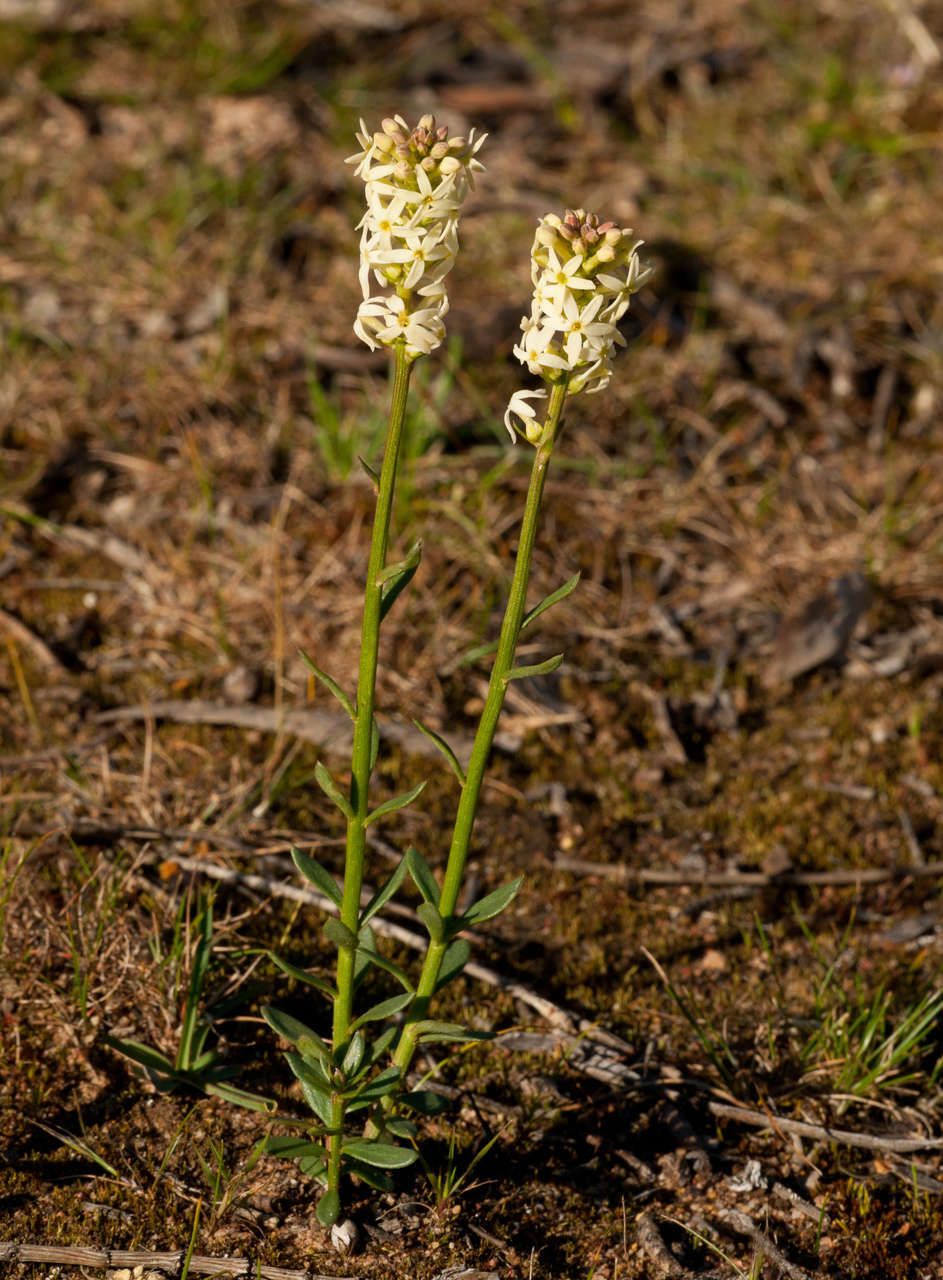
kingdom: Plantae
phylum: Tracheophyta
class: Magnoliopsida
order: Celastrales
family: Celastraceae
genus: Stackhousia
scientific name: Stackhousia subterranea
